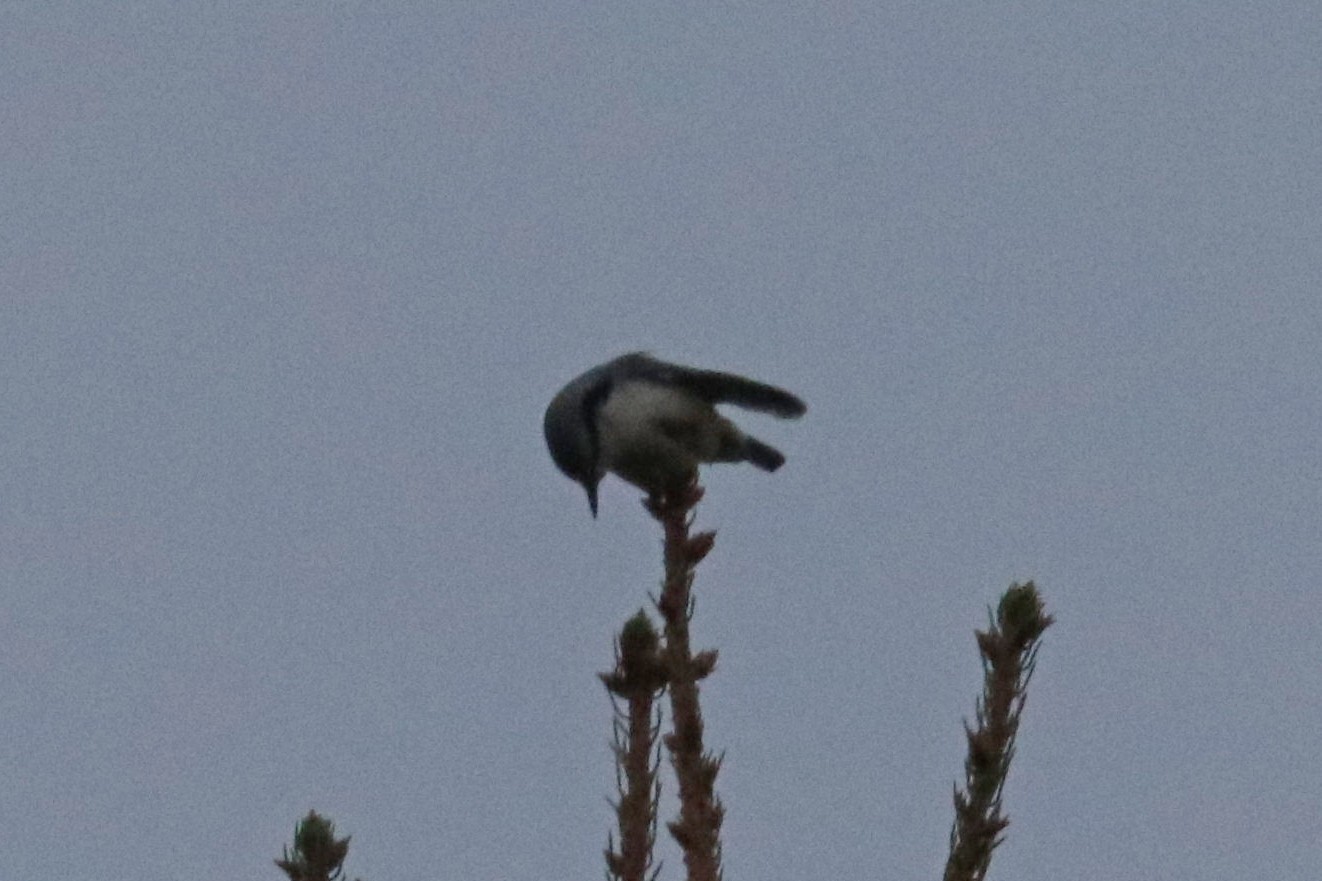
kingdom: Animalia
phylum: Chordata
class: Aves
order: Passeriformes
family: Sittidae
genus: Sitta
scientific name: Sitta europaea
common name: Eurasian nuthatch
